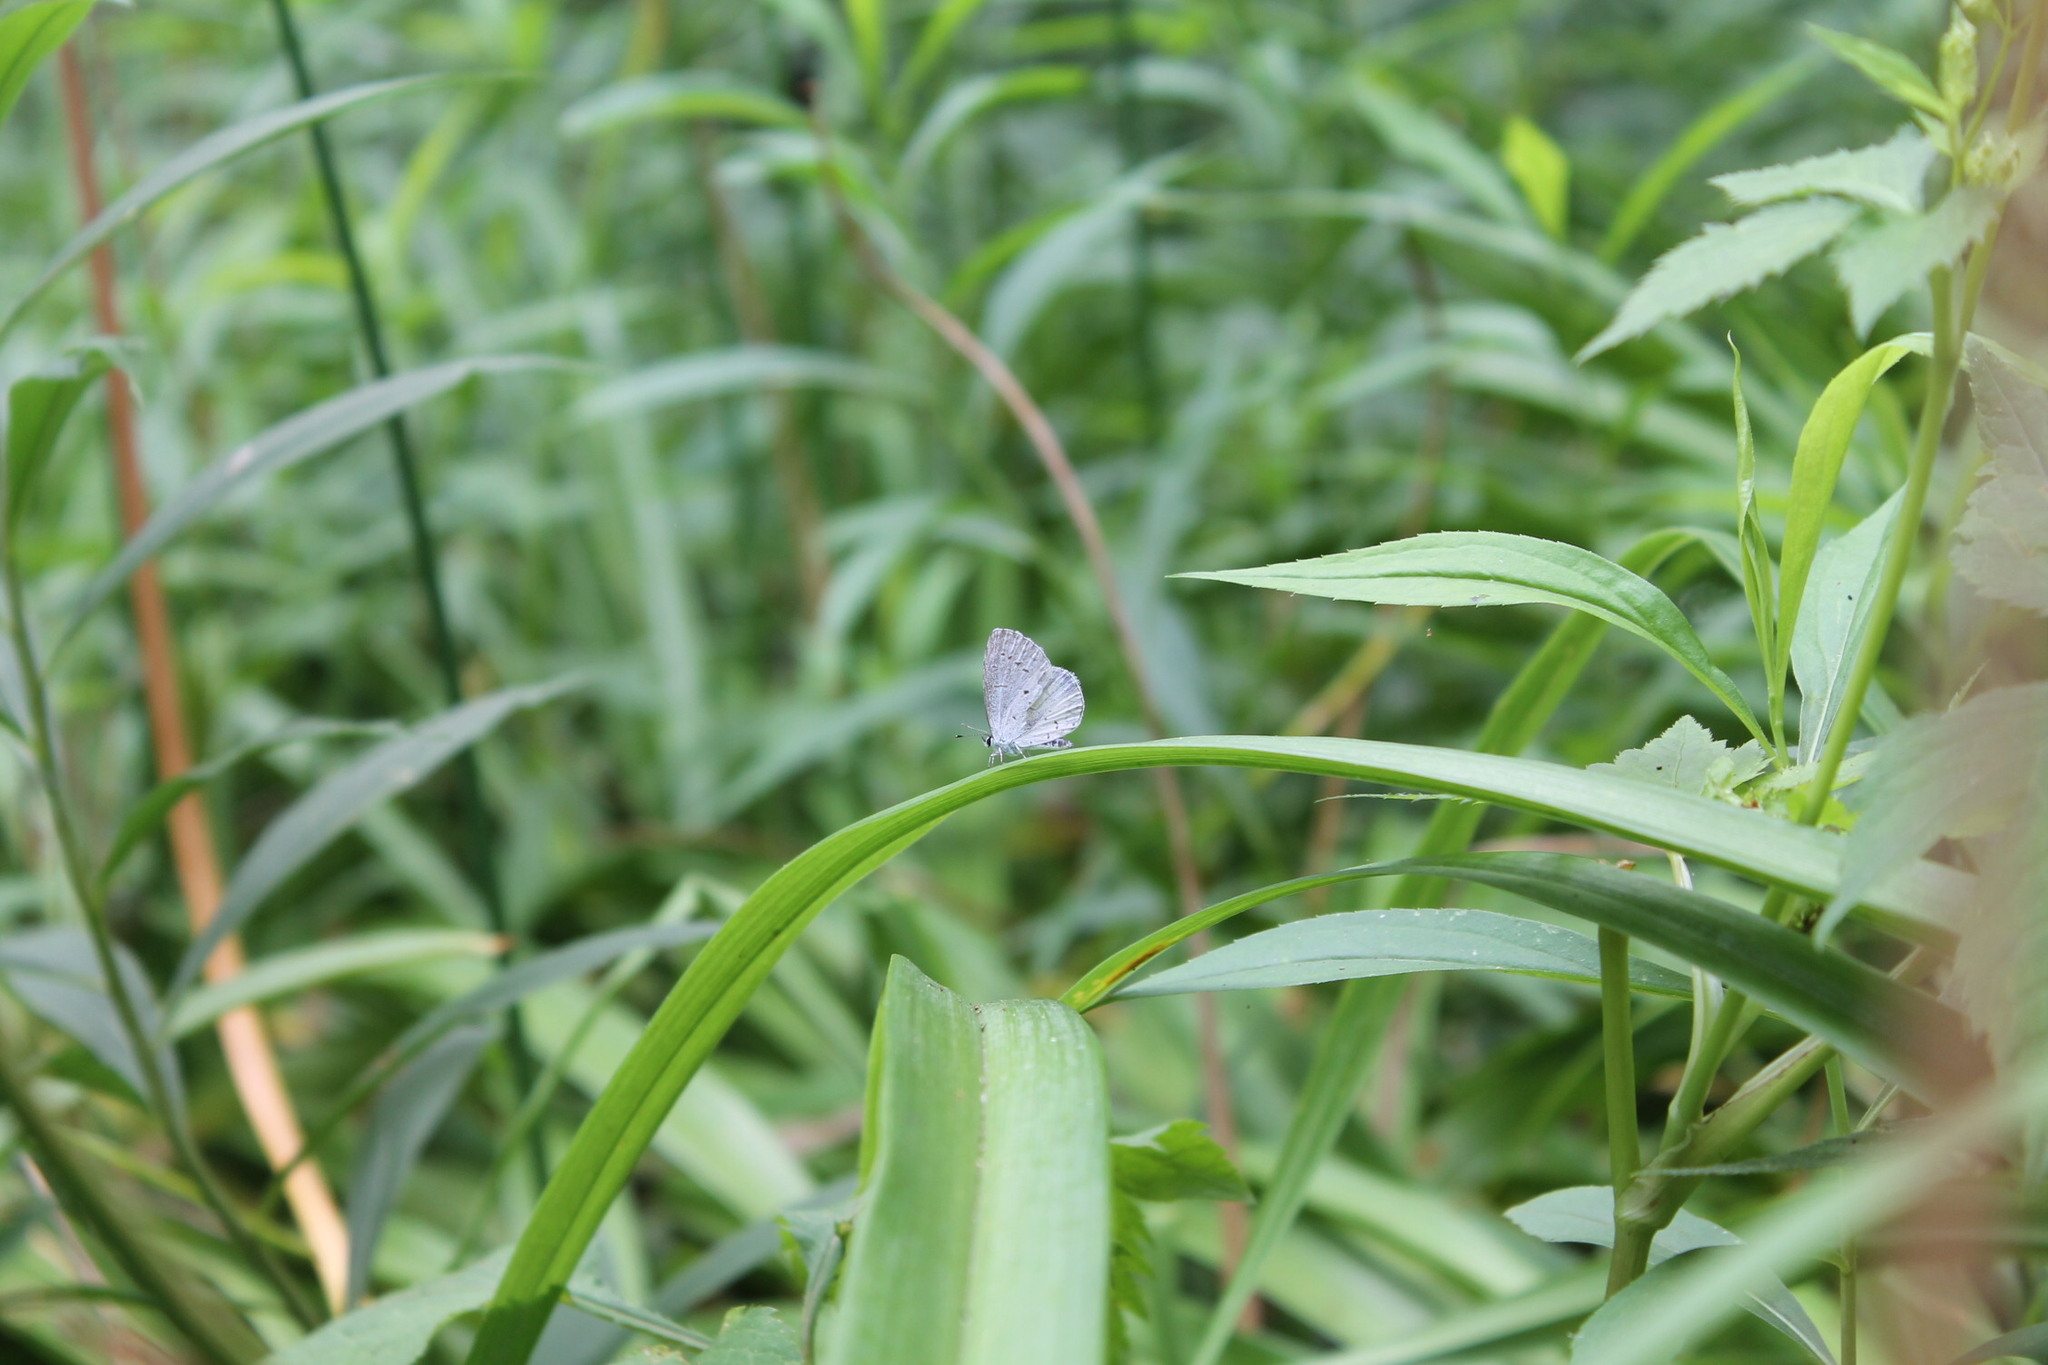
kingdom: Animalia
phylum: Arthropoda
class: Insecta
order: Lepidoptera
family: Lycaenidae
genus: Cyaniris
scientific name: Cyaniris neglecta
